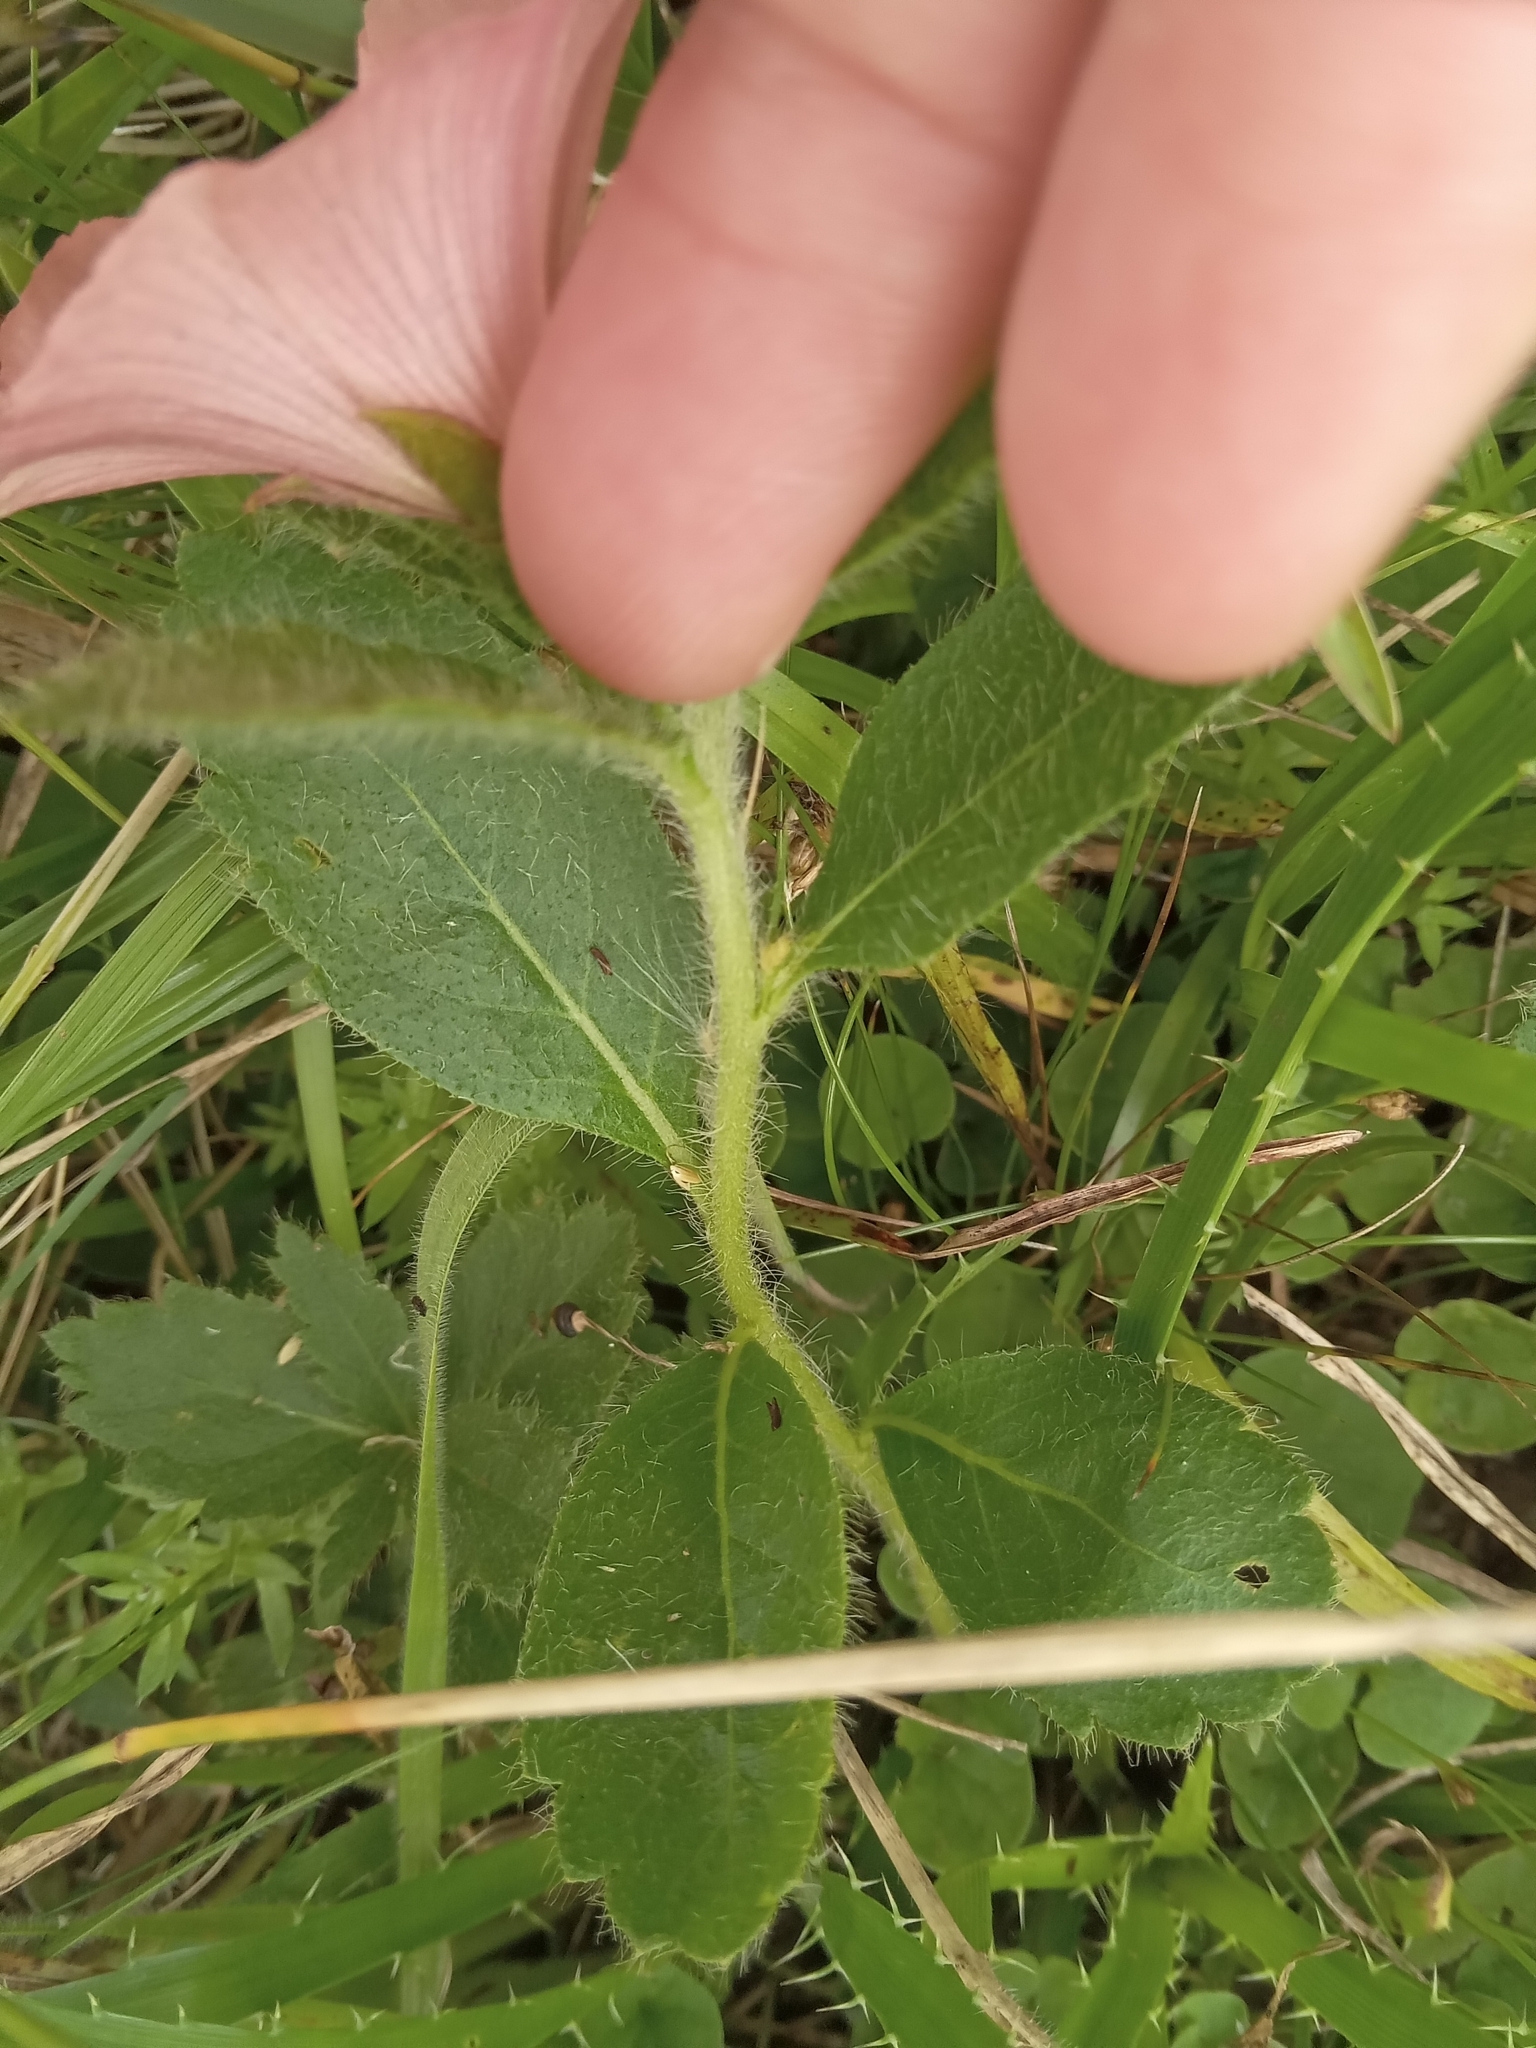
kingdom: Plantae
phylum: Tracheophyta
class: Magnoliopsida
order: Malpighiales
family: Turneraceae
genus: Turnera
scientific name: Turnera sidoides
